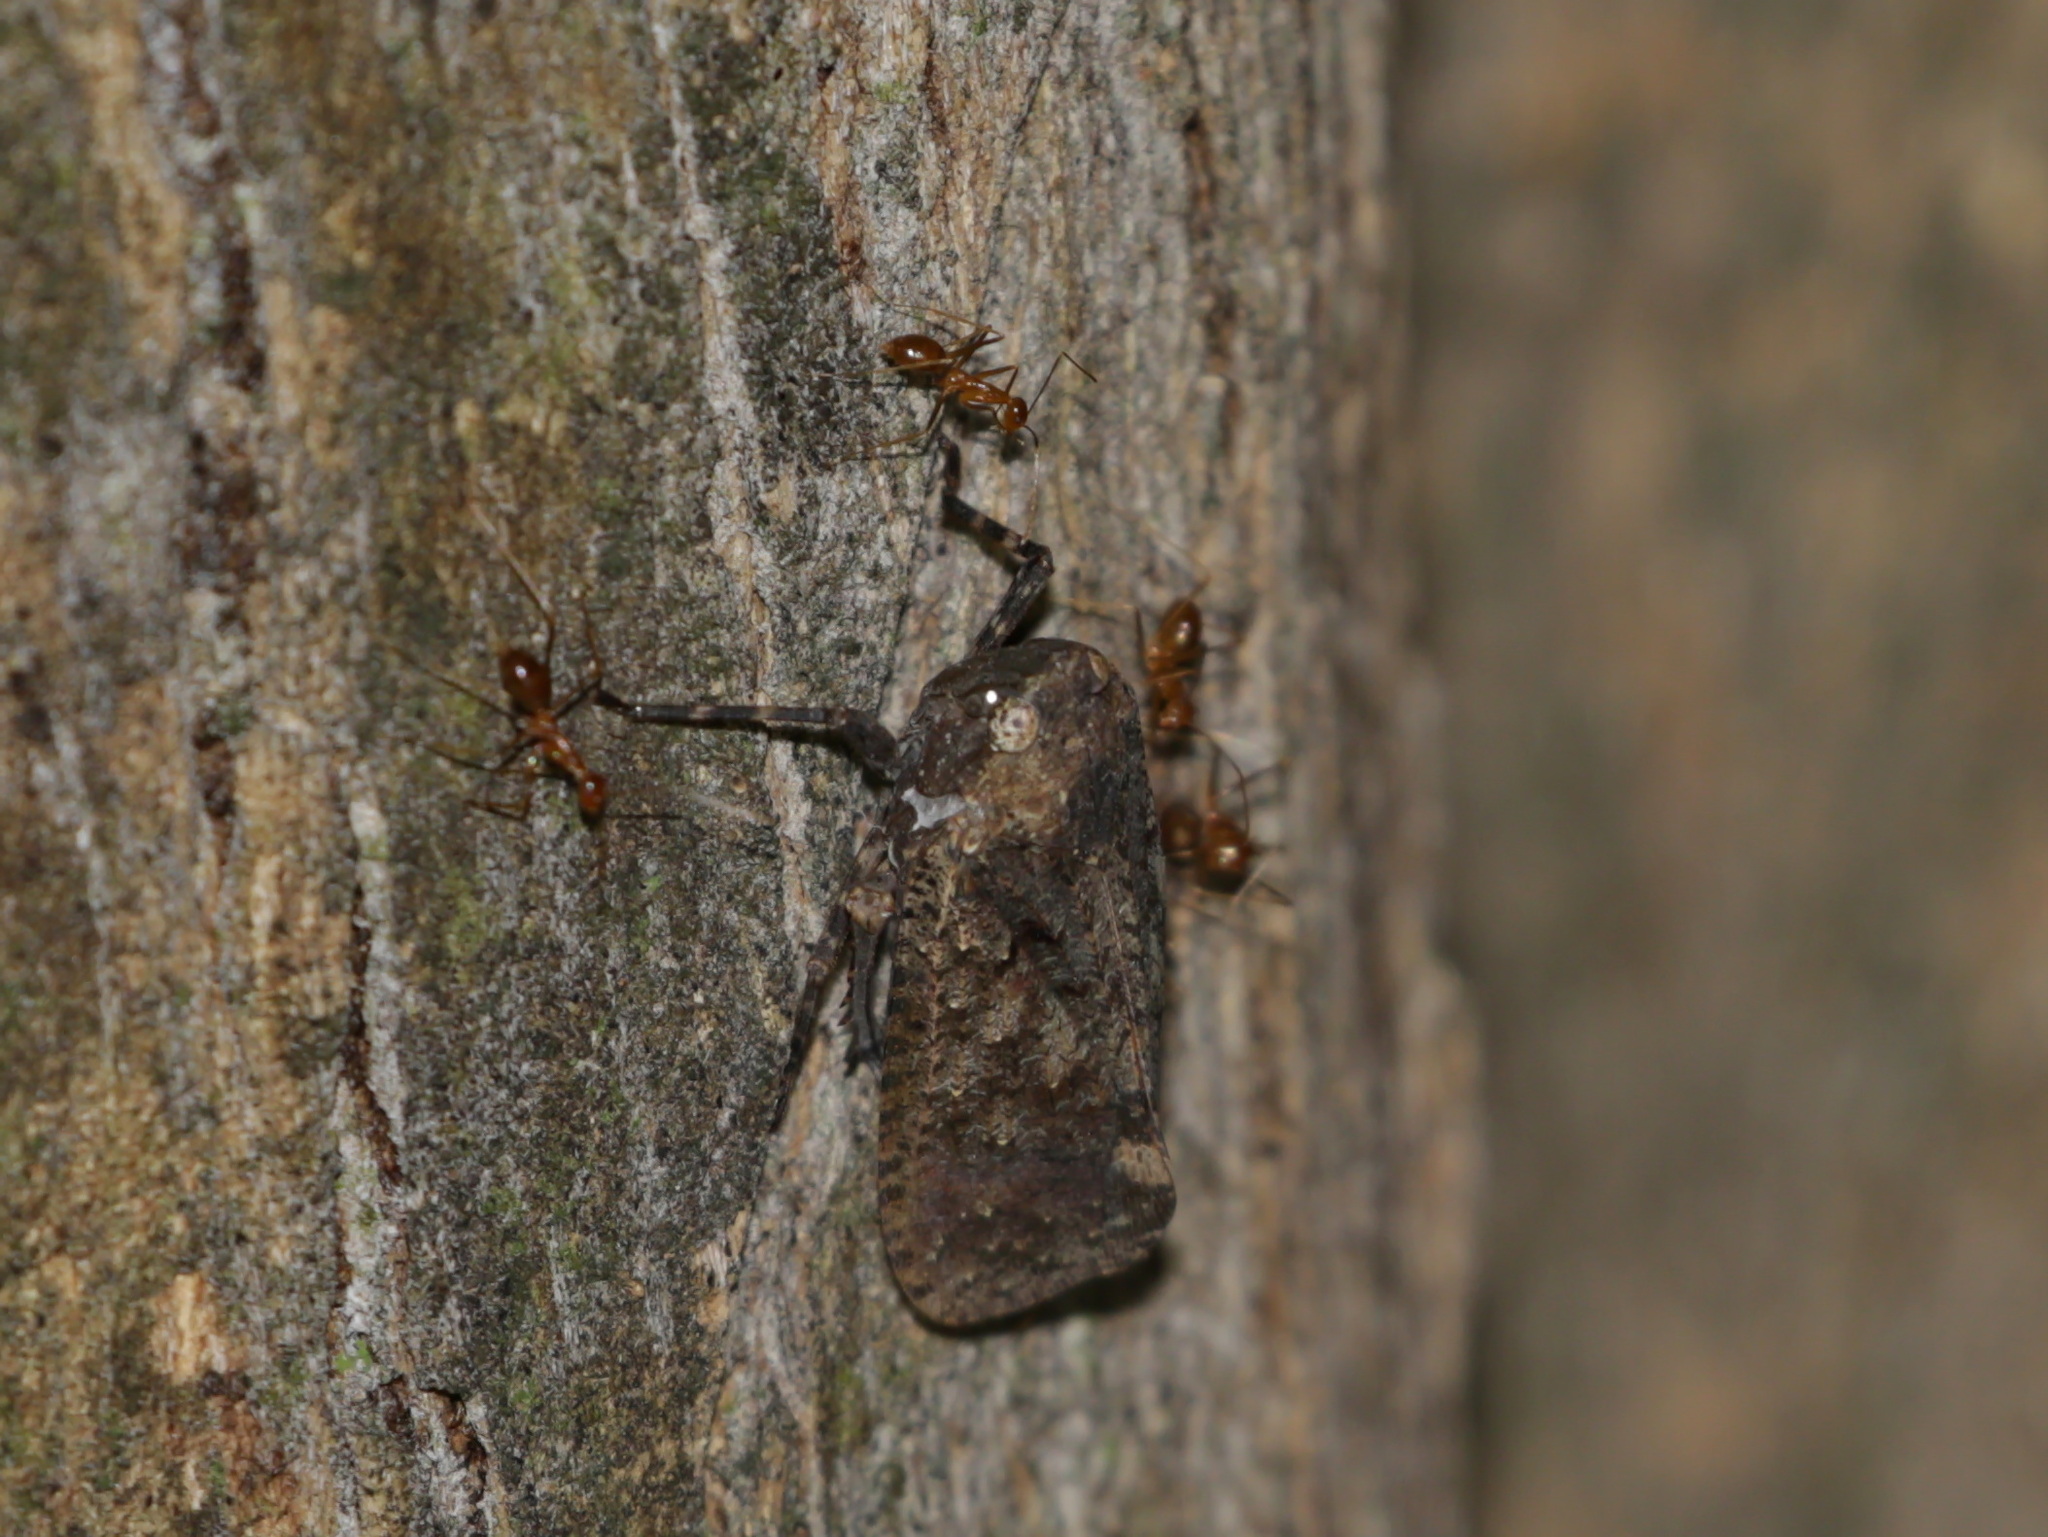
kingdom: Animalia
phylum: Arthropoda
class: Insecta
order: Hemiptera
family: Fulgoridae
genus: Penthicodes
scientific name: Penthicodes pulchella
